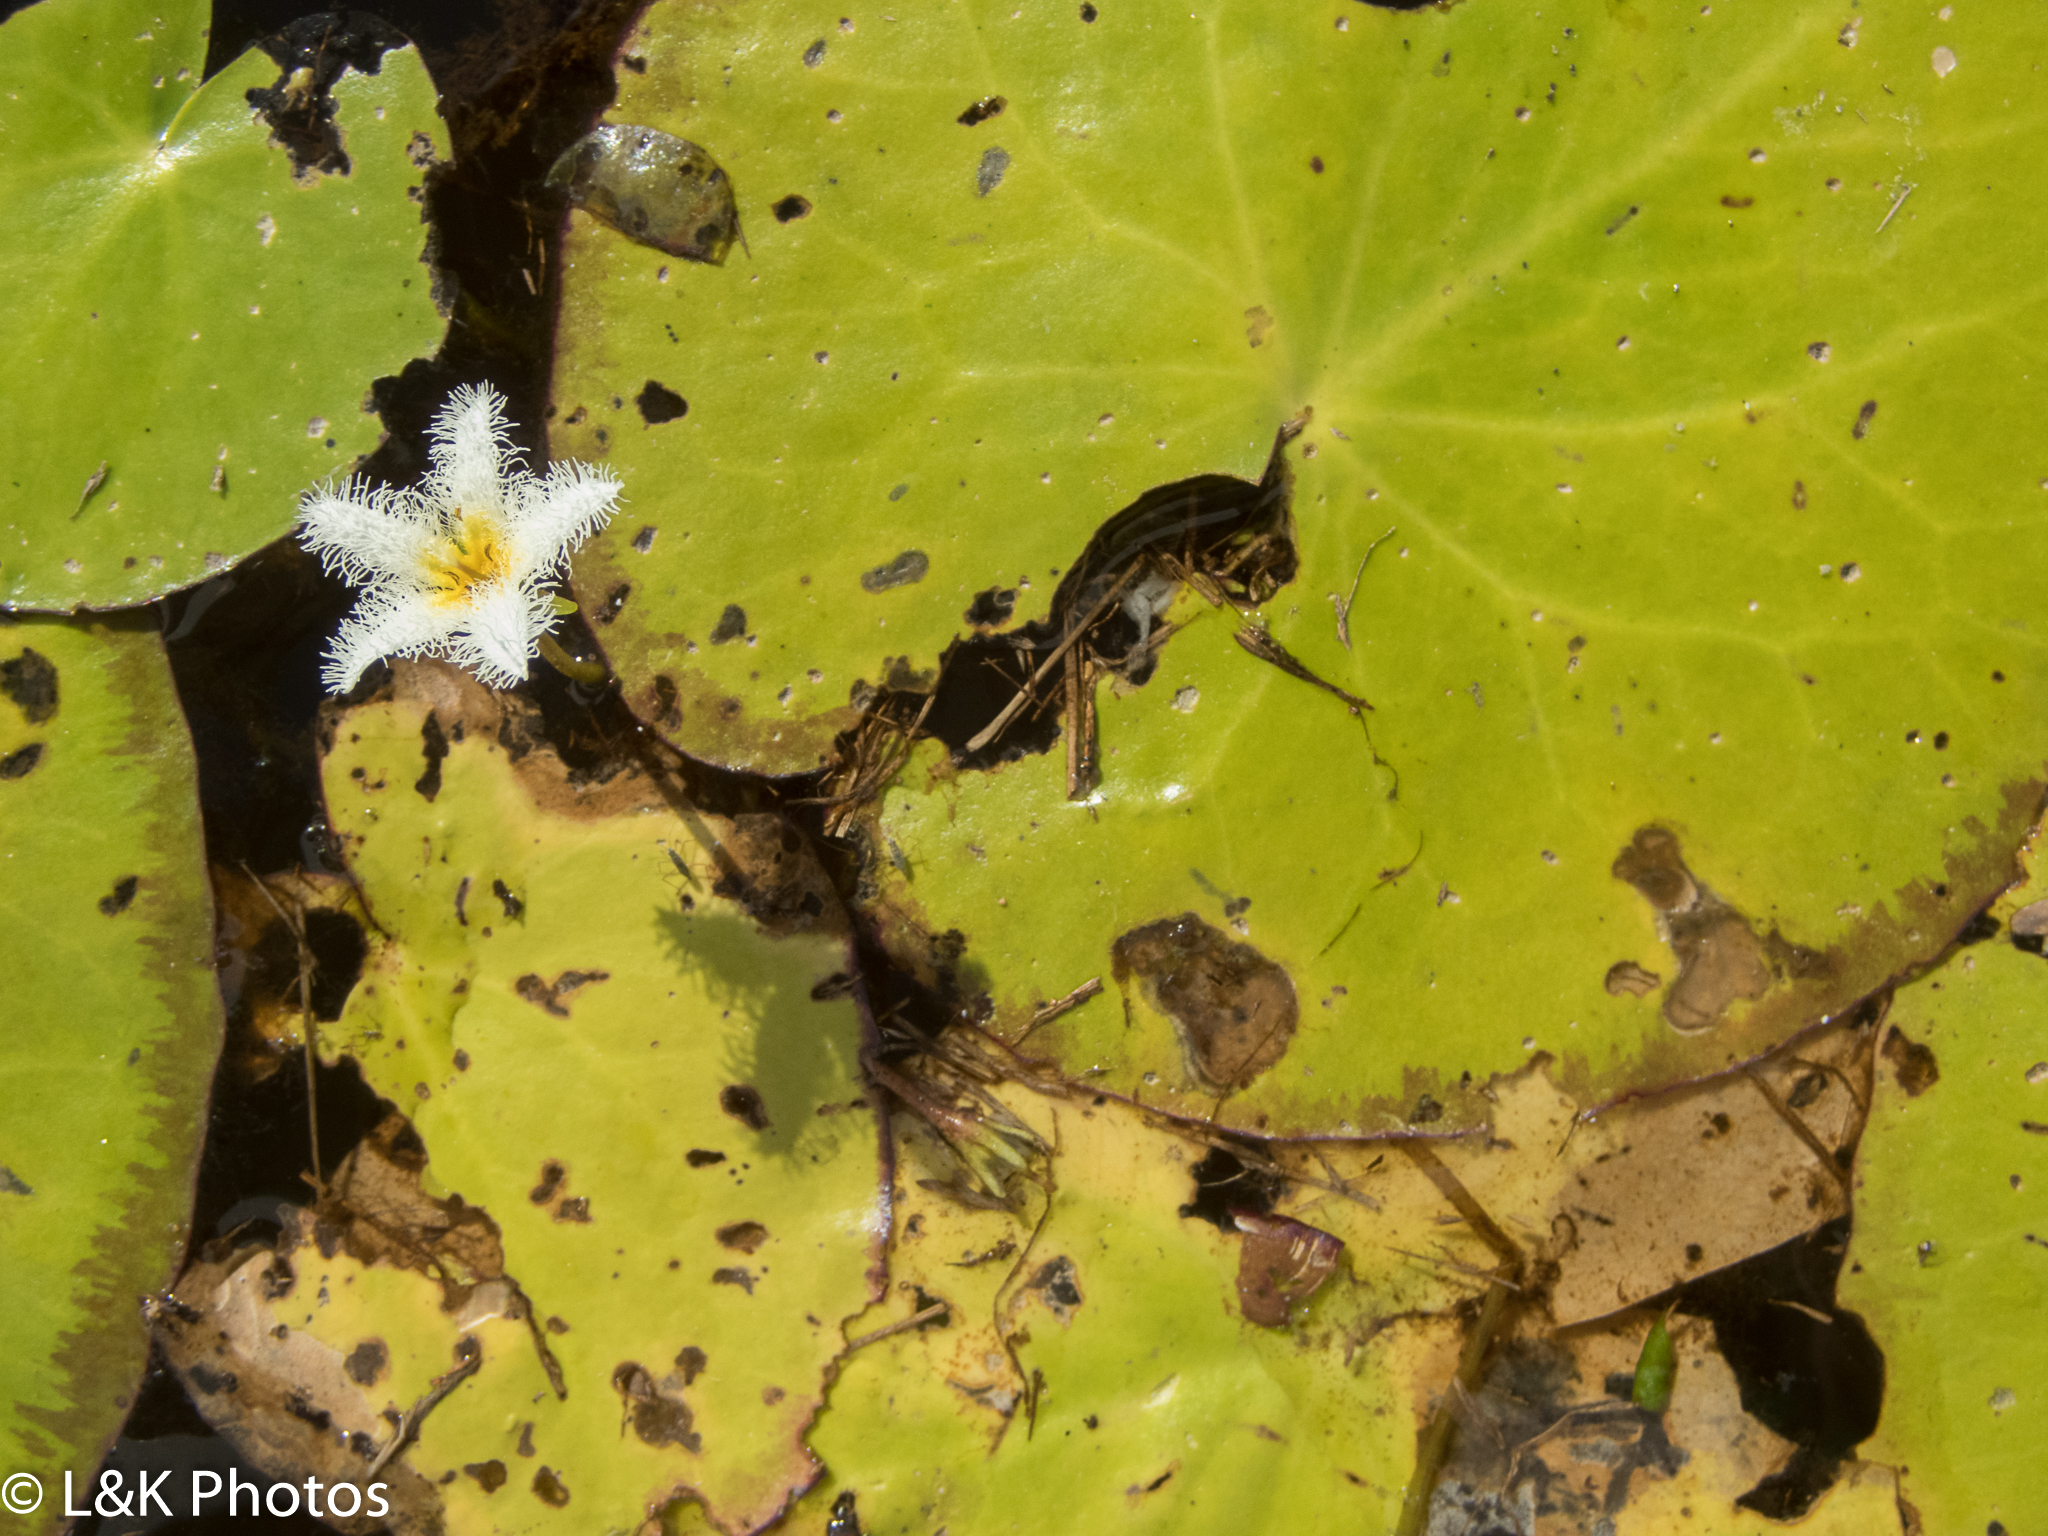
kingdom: Plantae
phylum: Tracheophyta
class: Magnoliopsida
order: Asterales
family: Menyanthaceae
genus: Nymphoides
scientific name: Nymphoides humboldtiana
